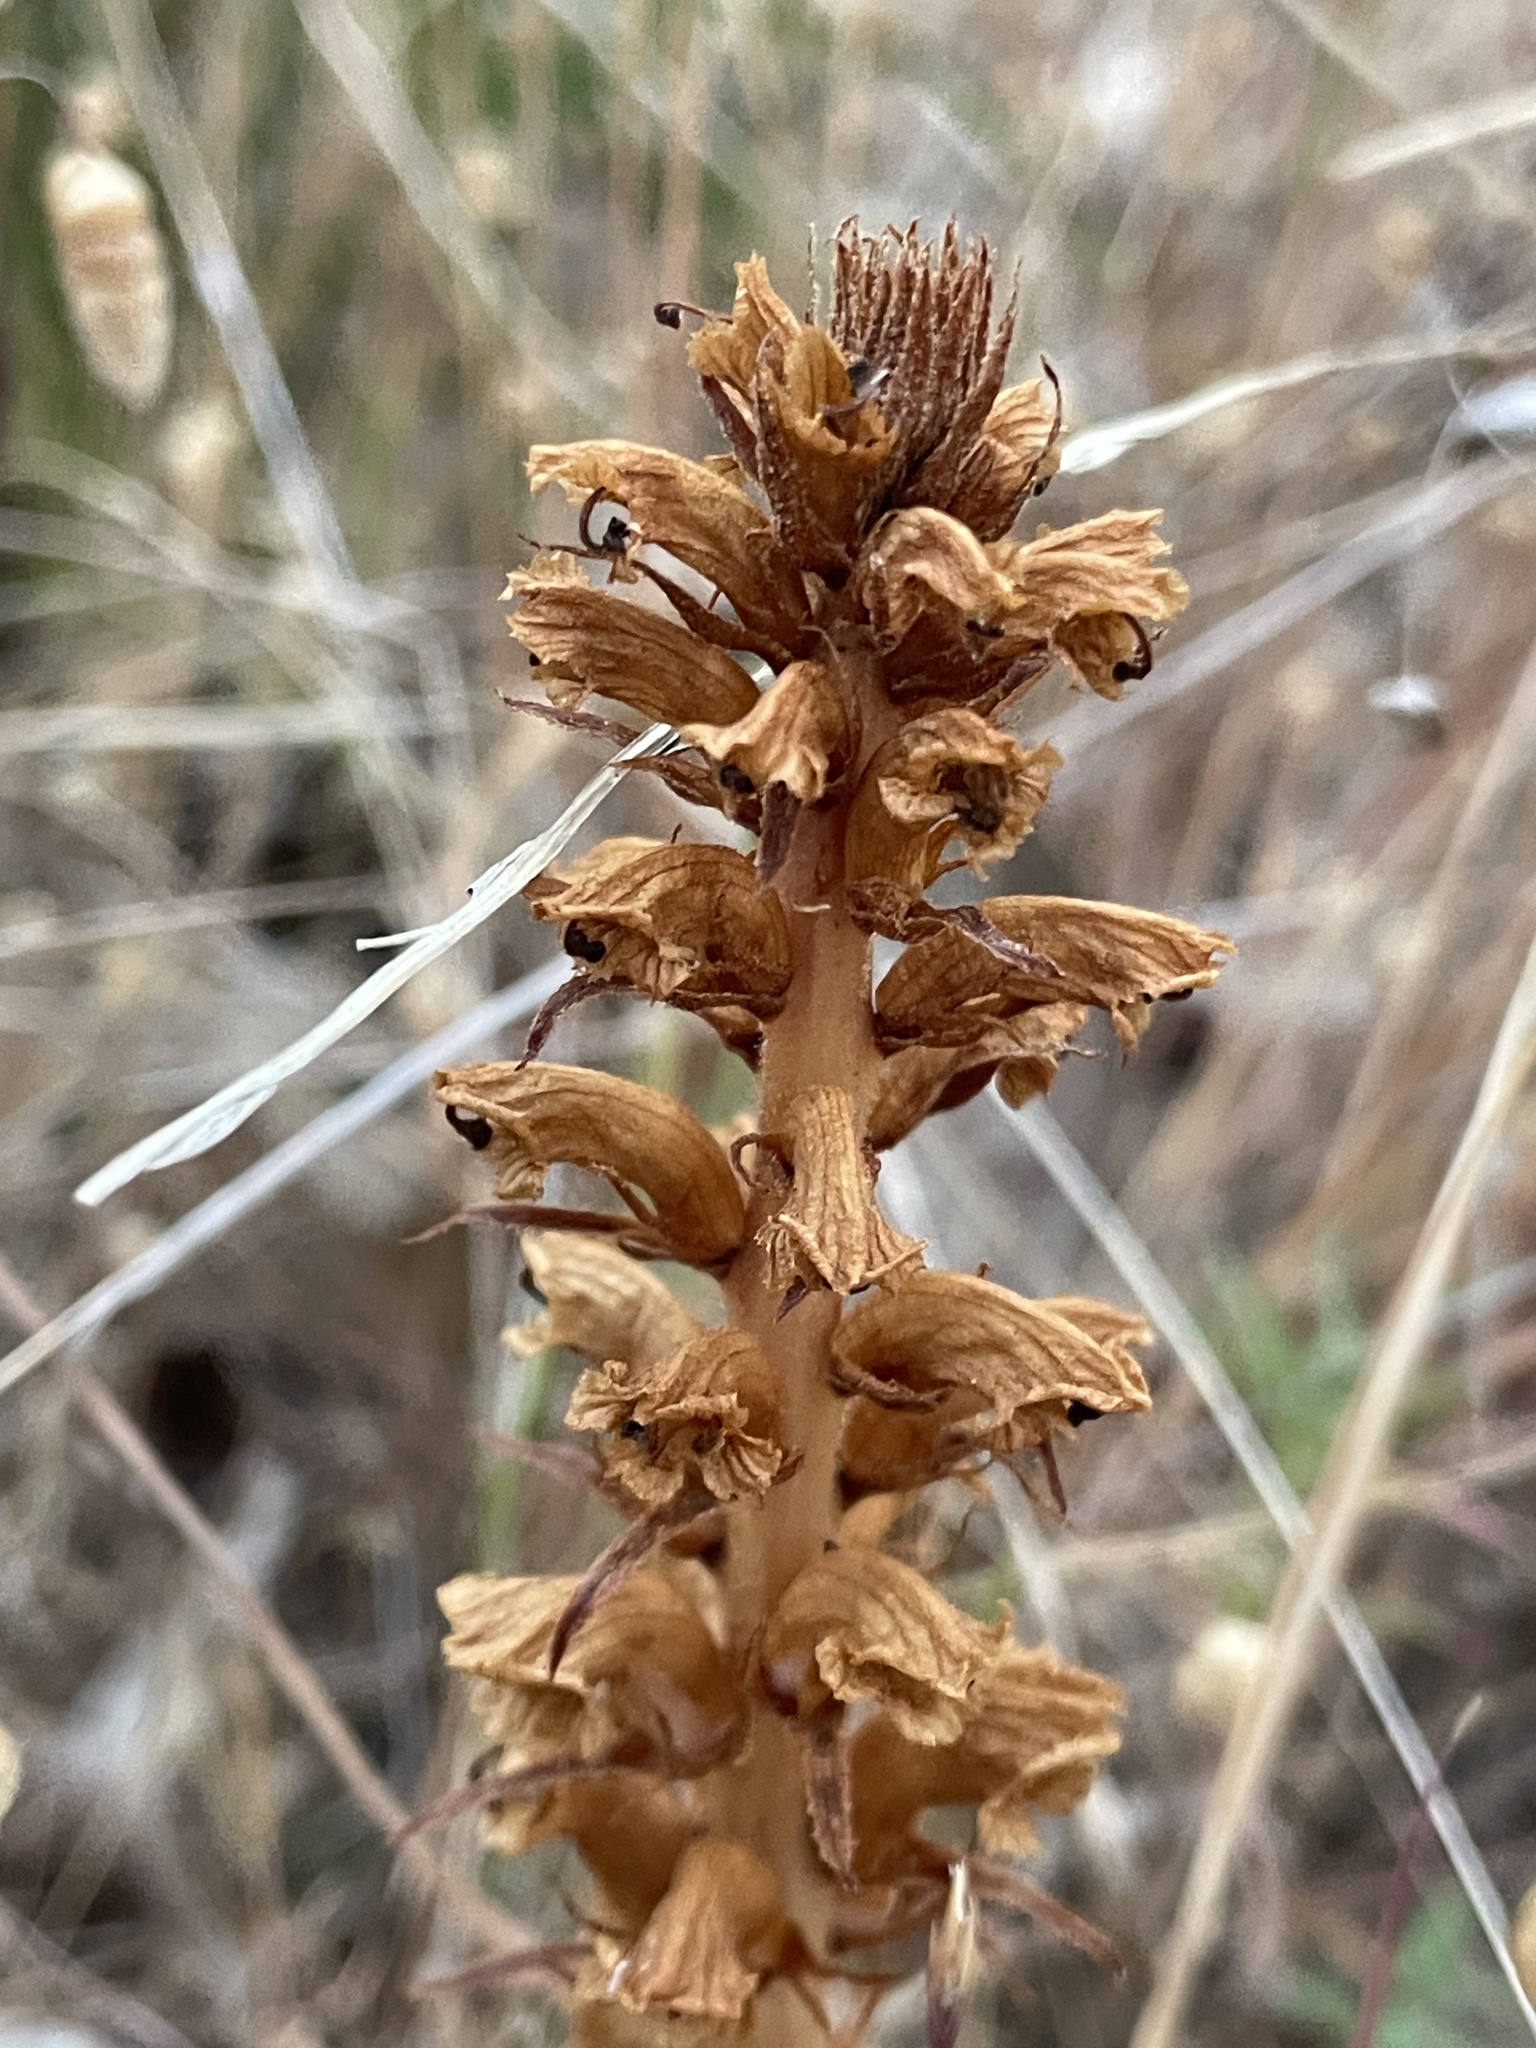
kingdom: Plantae
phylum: Tracheophyta
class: Magnoliopsida
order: Lamiales
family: Orobanchaceae
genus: Orobanche
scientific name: Orobanche minor
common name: Common broomrape
